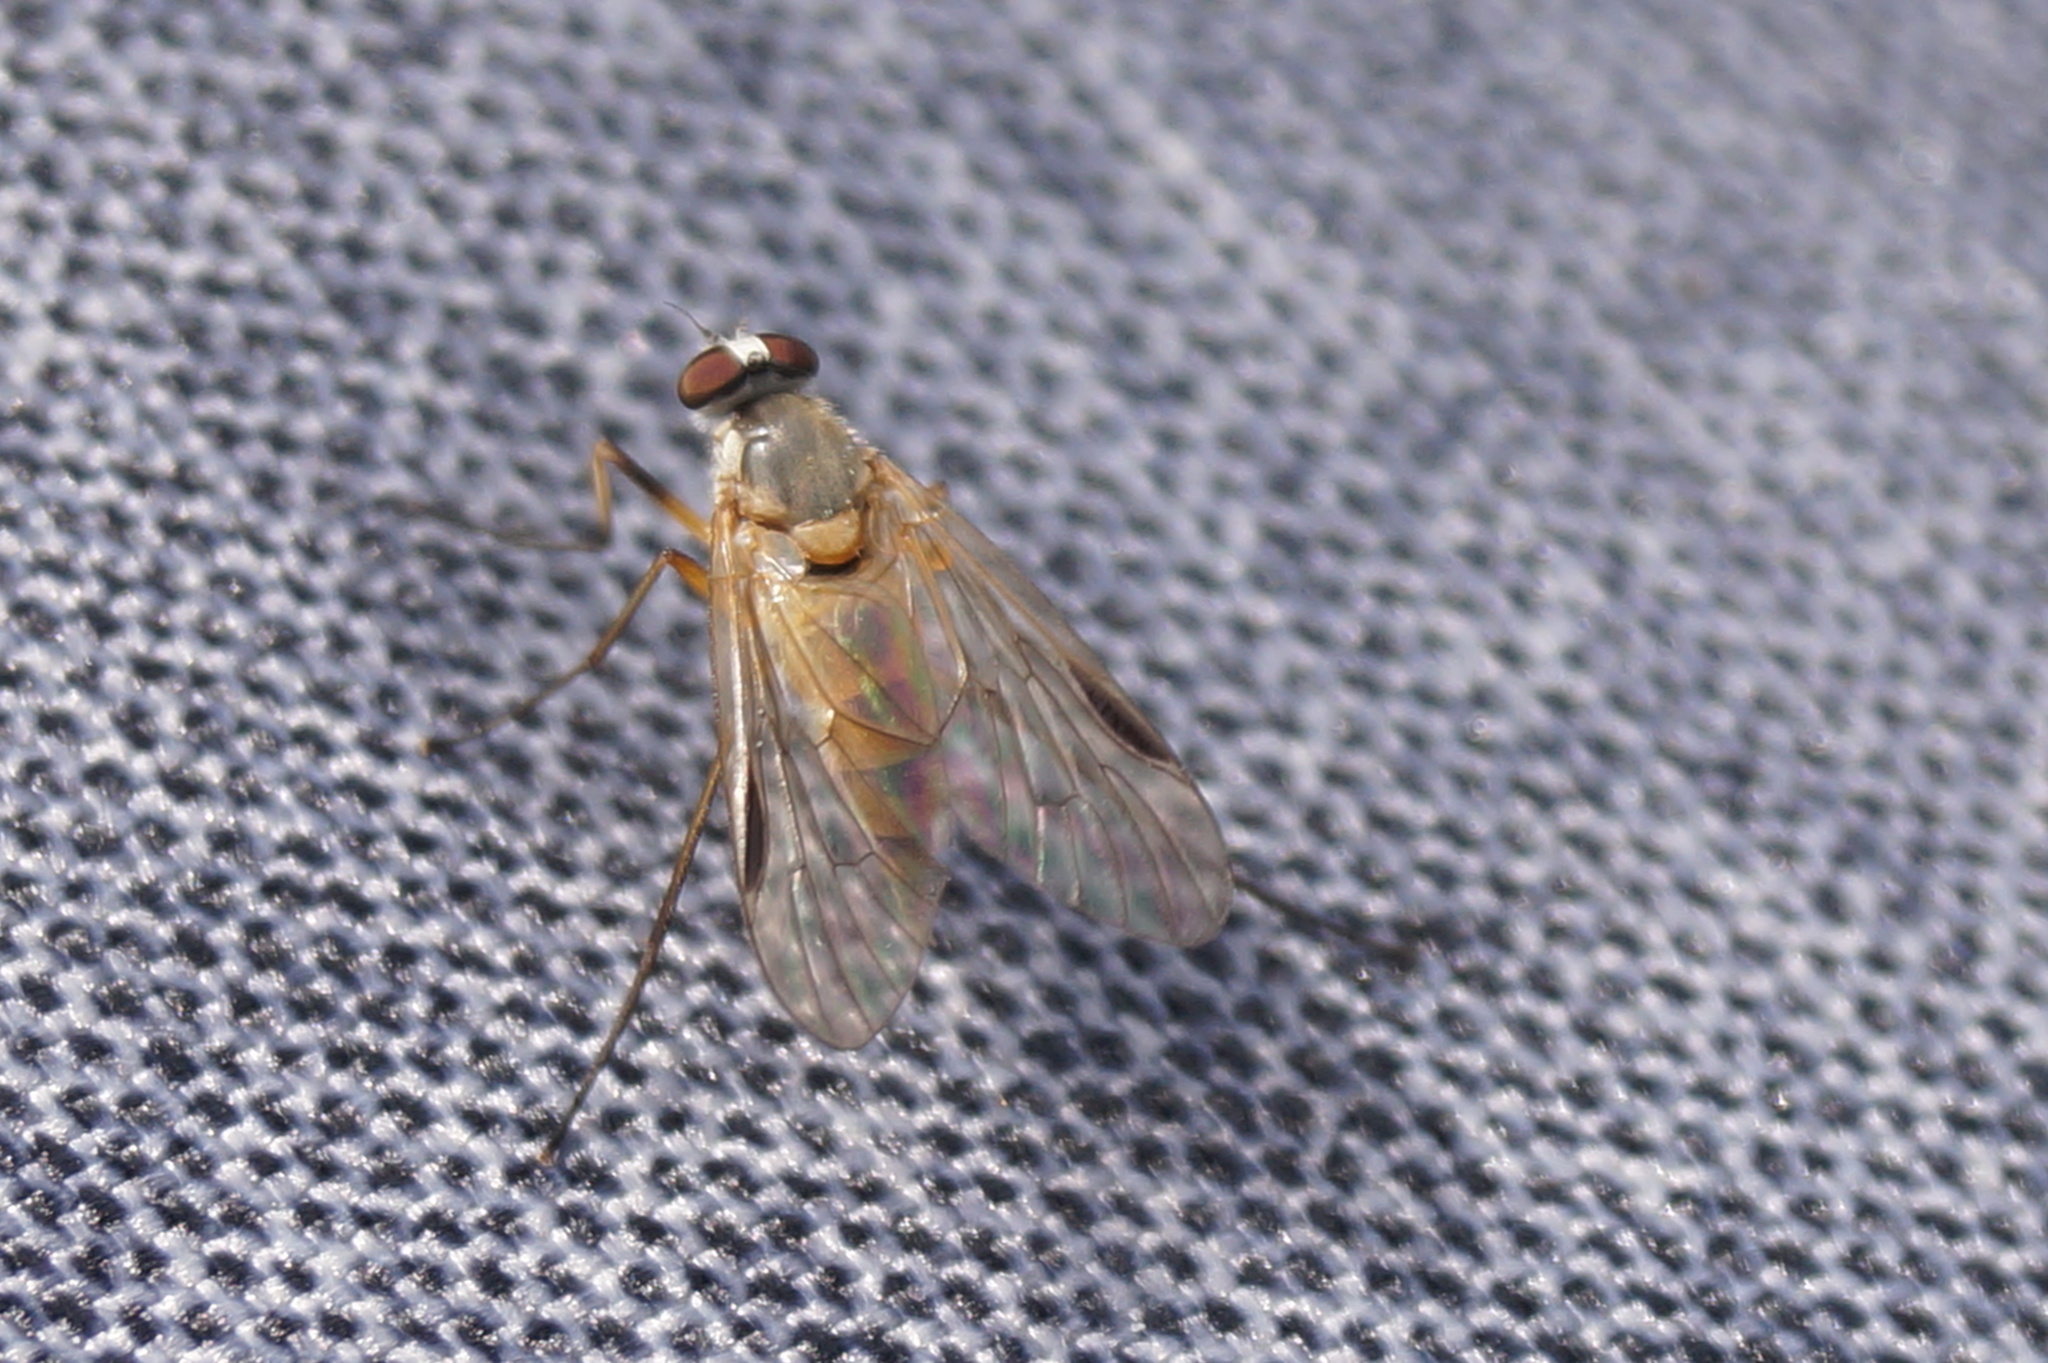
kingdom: Animalia
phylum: Arthropoda
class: Insecta
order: Diptera
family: Rhagionidae
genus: Rhagio
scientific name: Rhagio lineola
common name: Small fleck-winged snipefly
